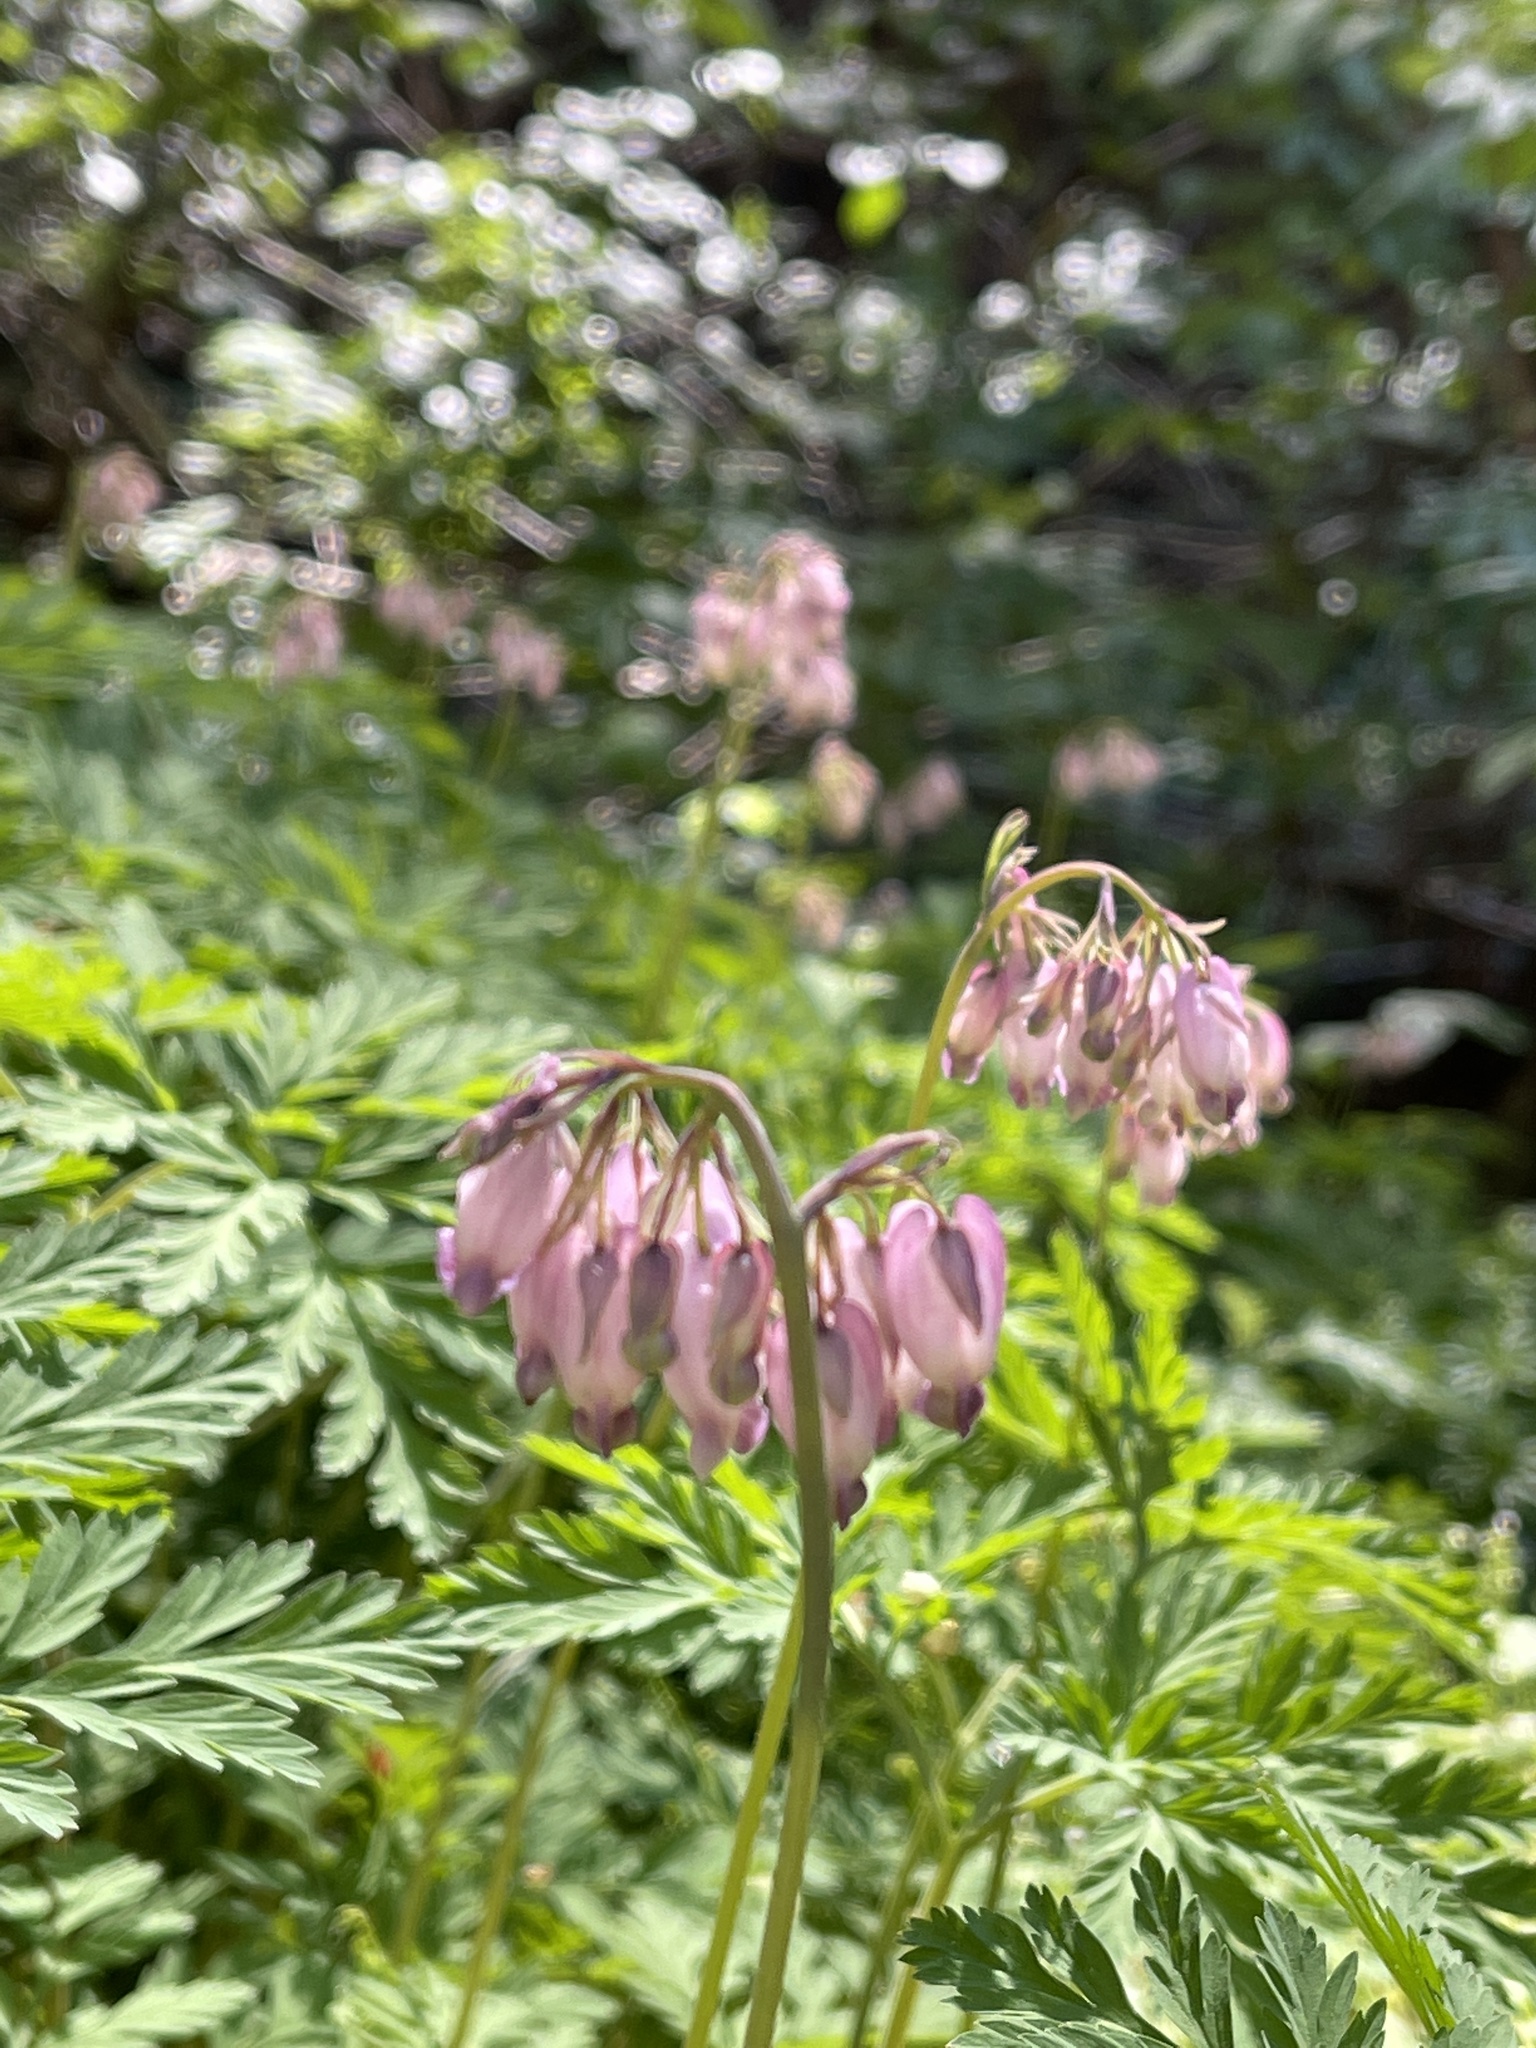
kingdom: Plantae
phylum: Tracheophyta
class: Magnoliopsida
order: Ranunculales
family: Papaveraceae
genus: Dicentra
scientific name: Dicentra formosa
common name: Bleeding-heart
